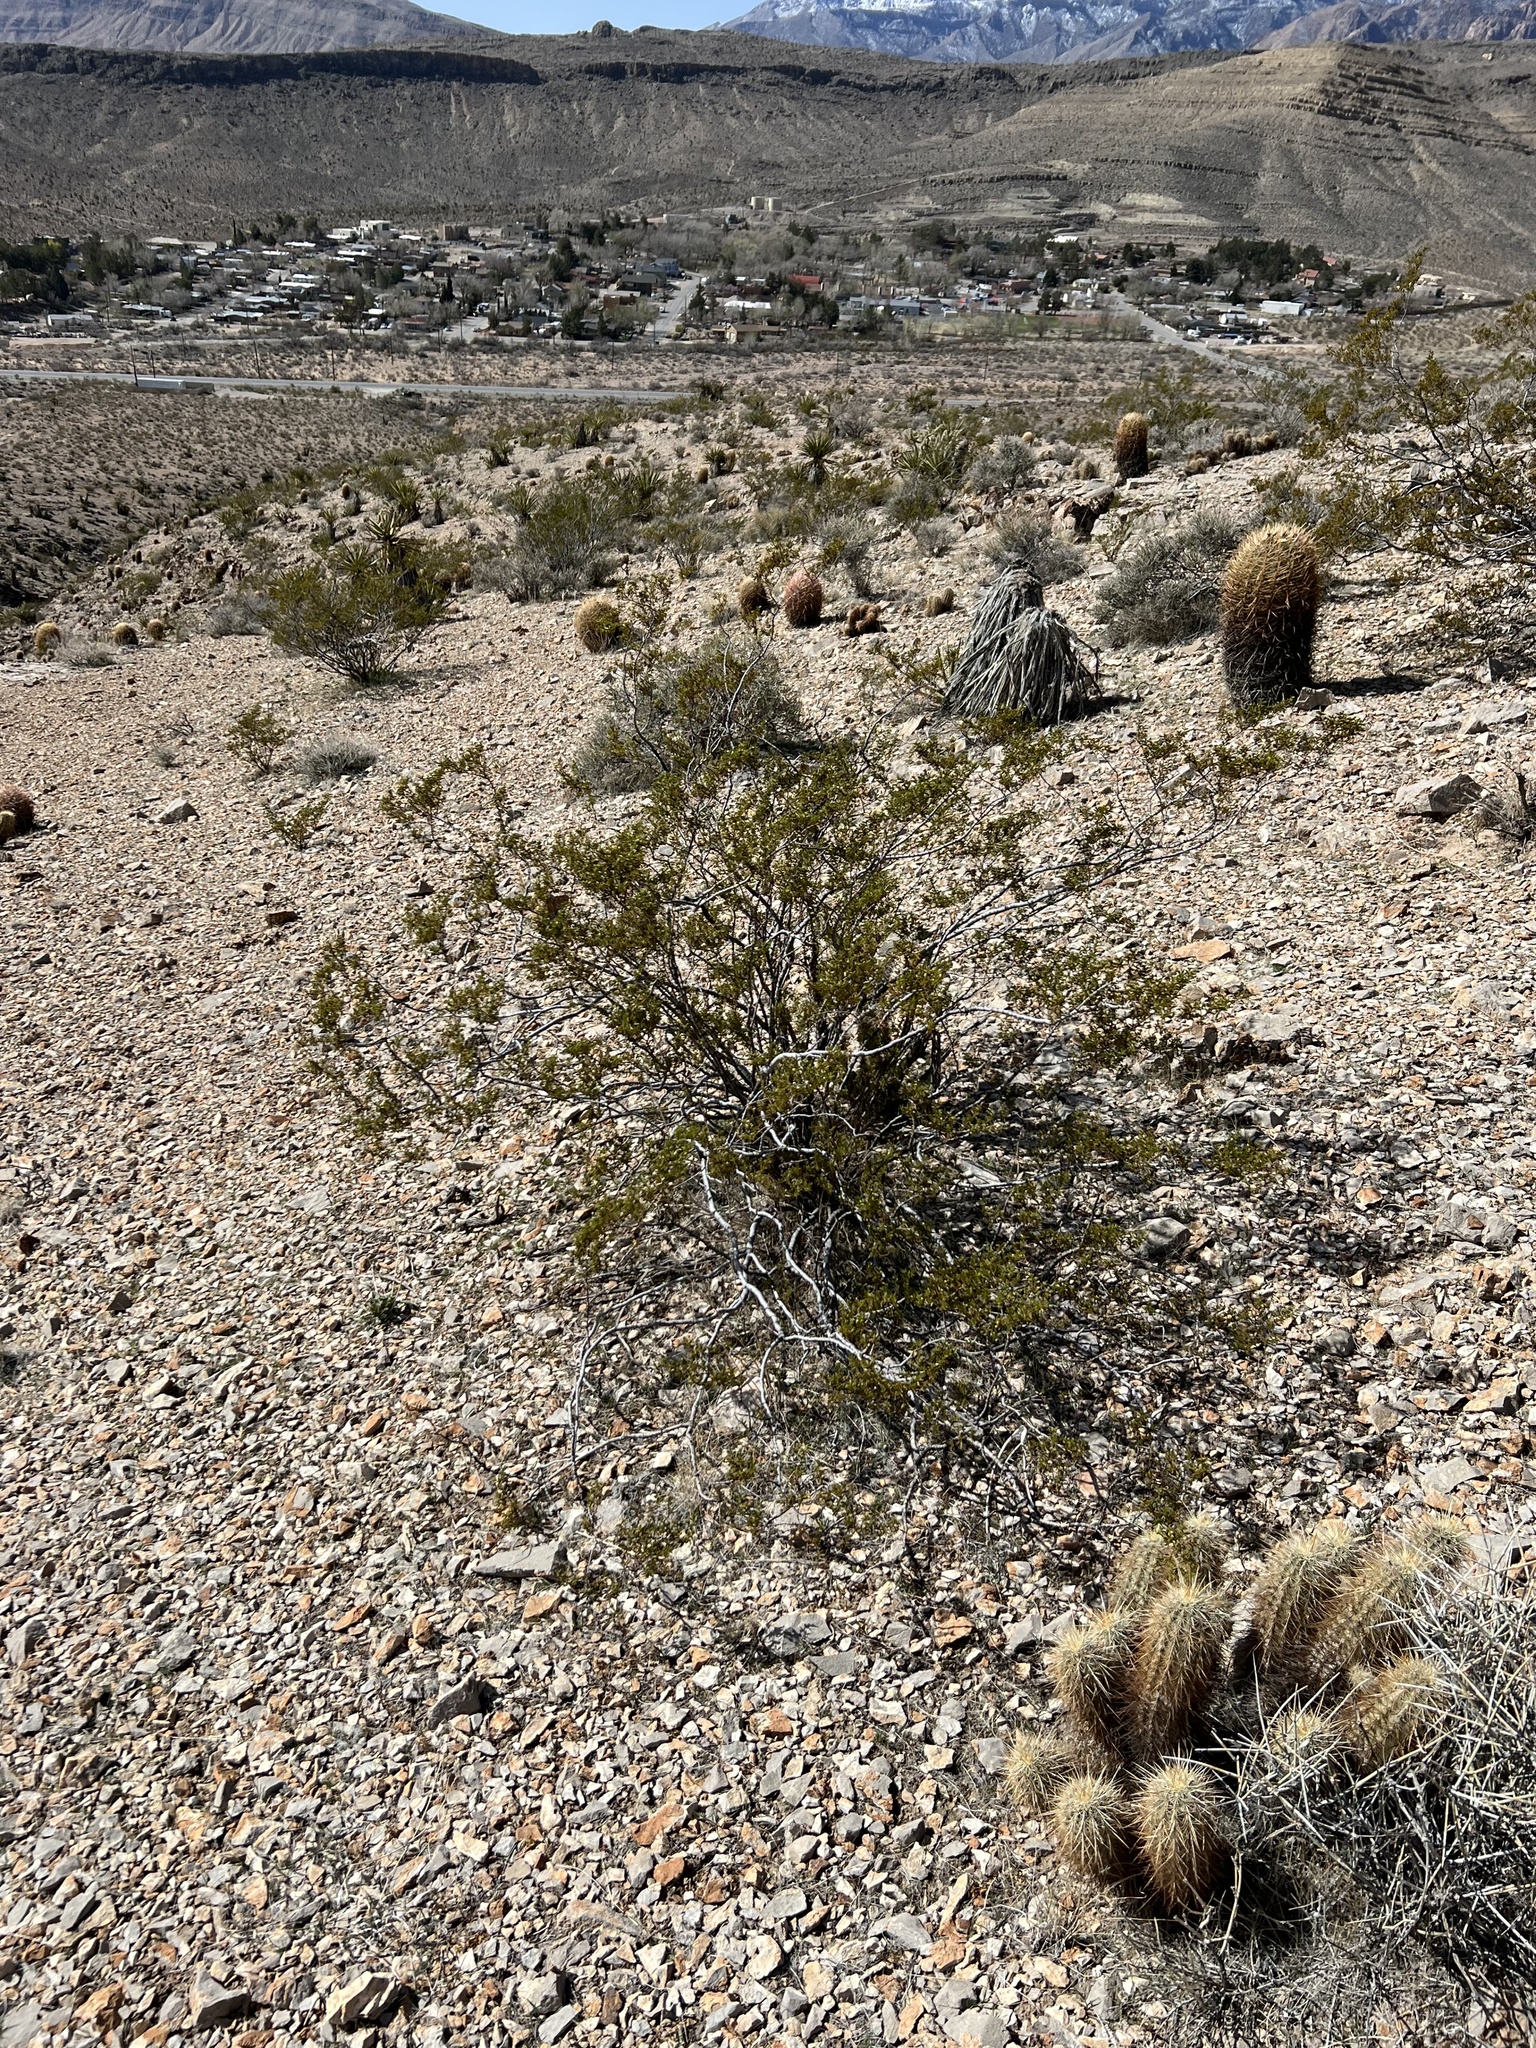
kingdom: Plantae
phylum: Tracheophyta
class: Magnoliopsida
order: Zygophyllales
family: Zygophyllaceae
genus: Larrea
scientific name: Larrea tridentata
